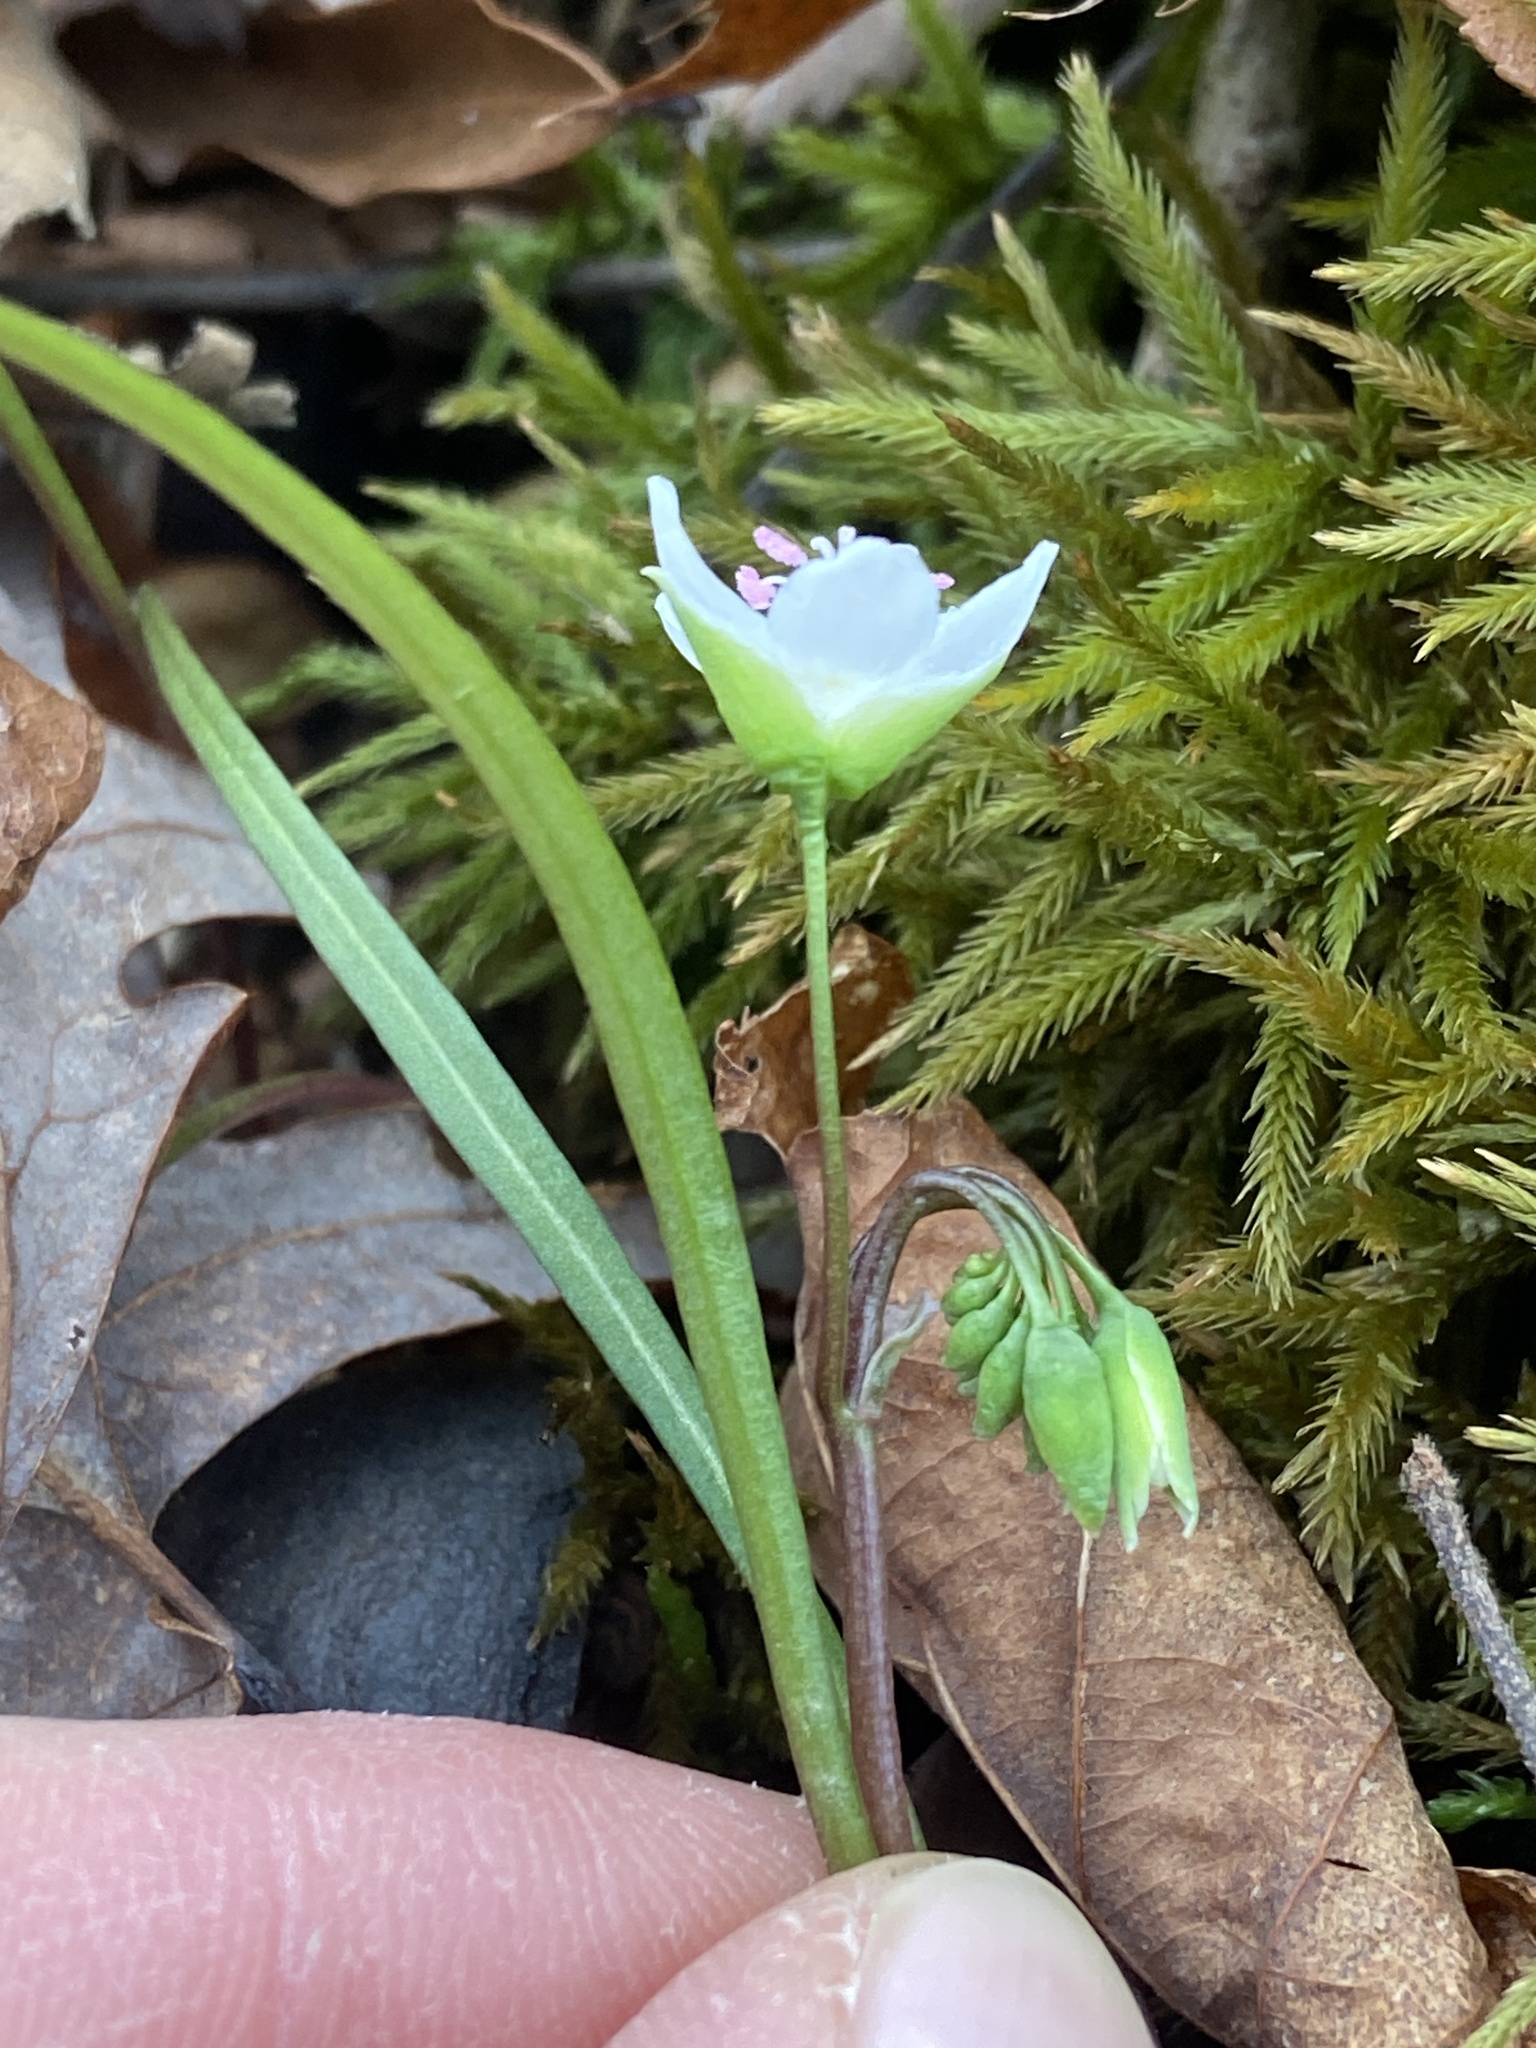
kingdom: Plantae
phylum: Tracheophyta
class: Magnoliopsida
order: Caryophyllales
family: Montiaceae
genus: Claytonia
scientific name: Claytonia virginica
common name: Virginia springbeauty
